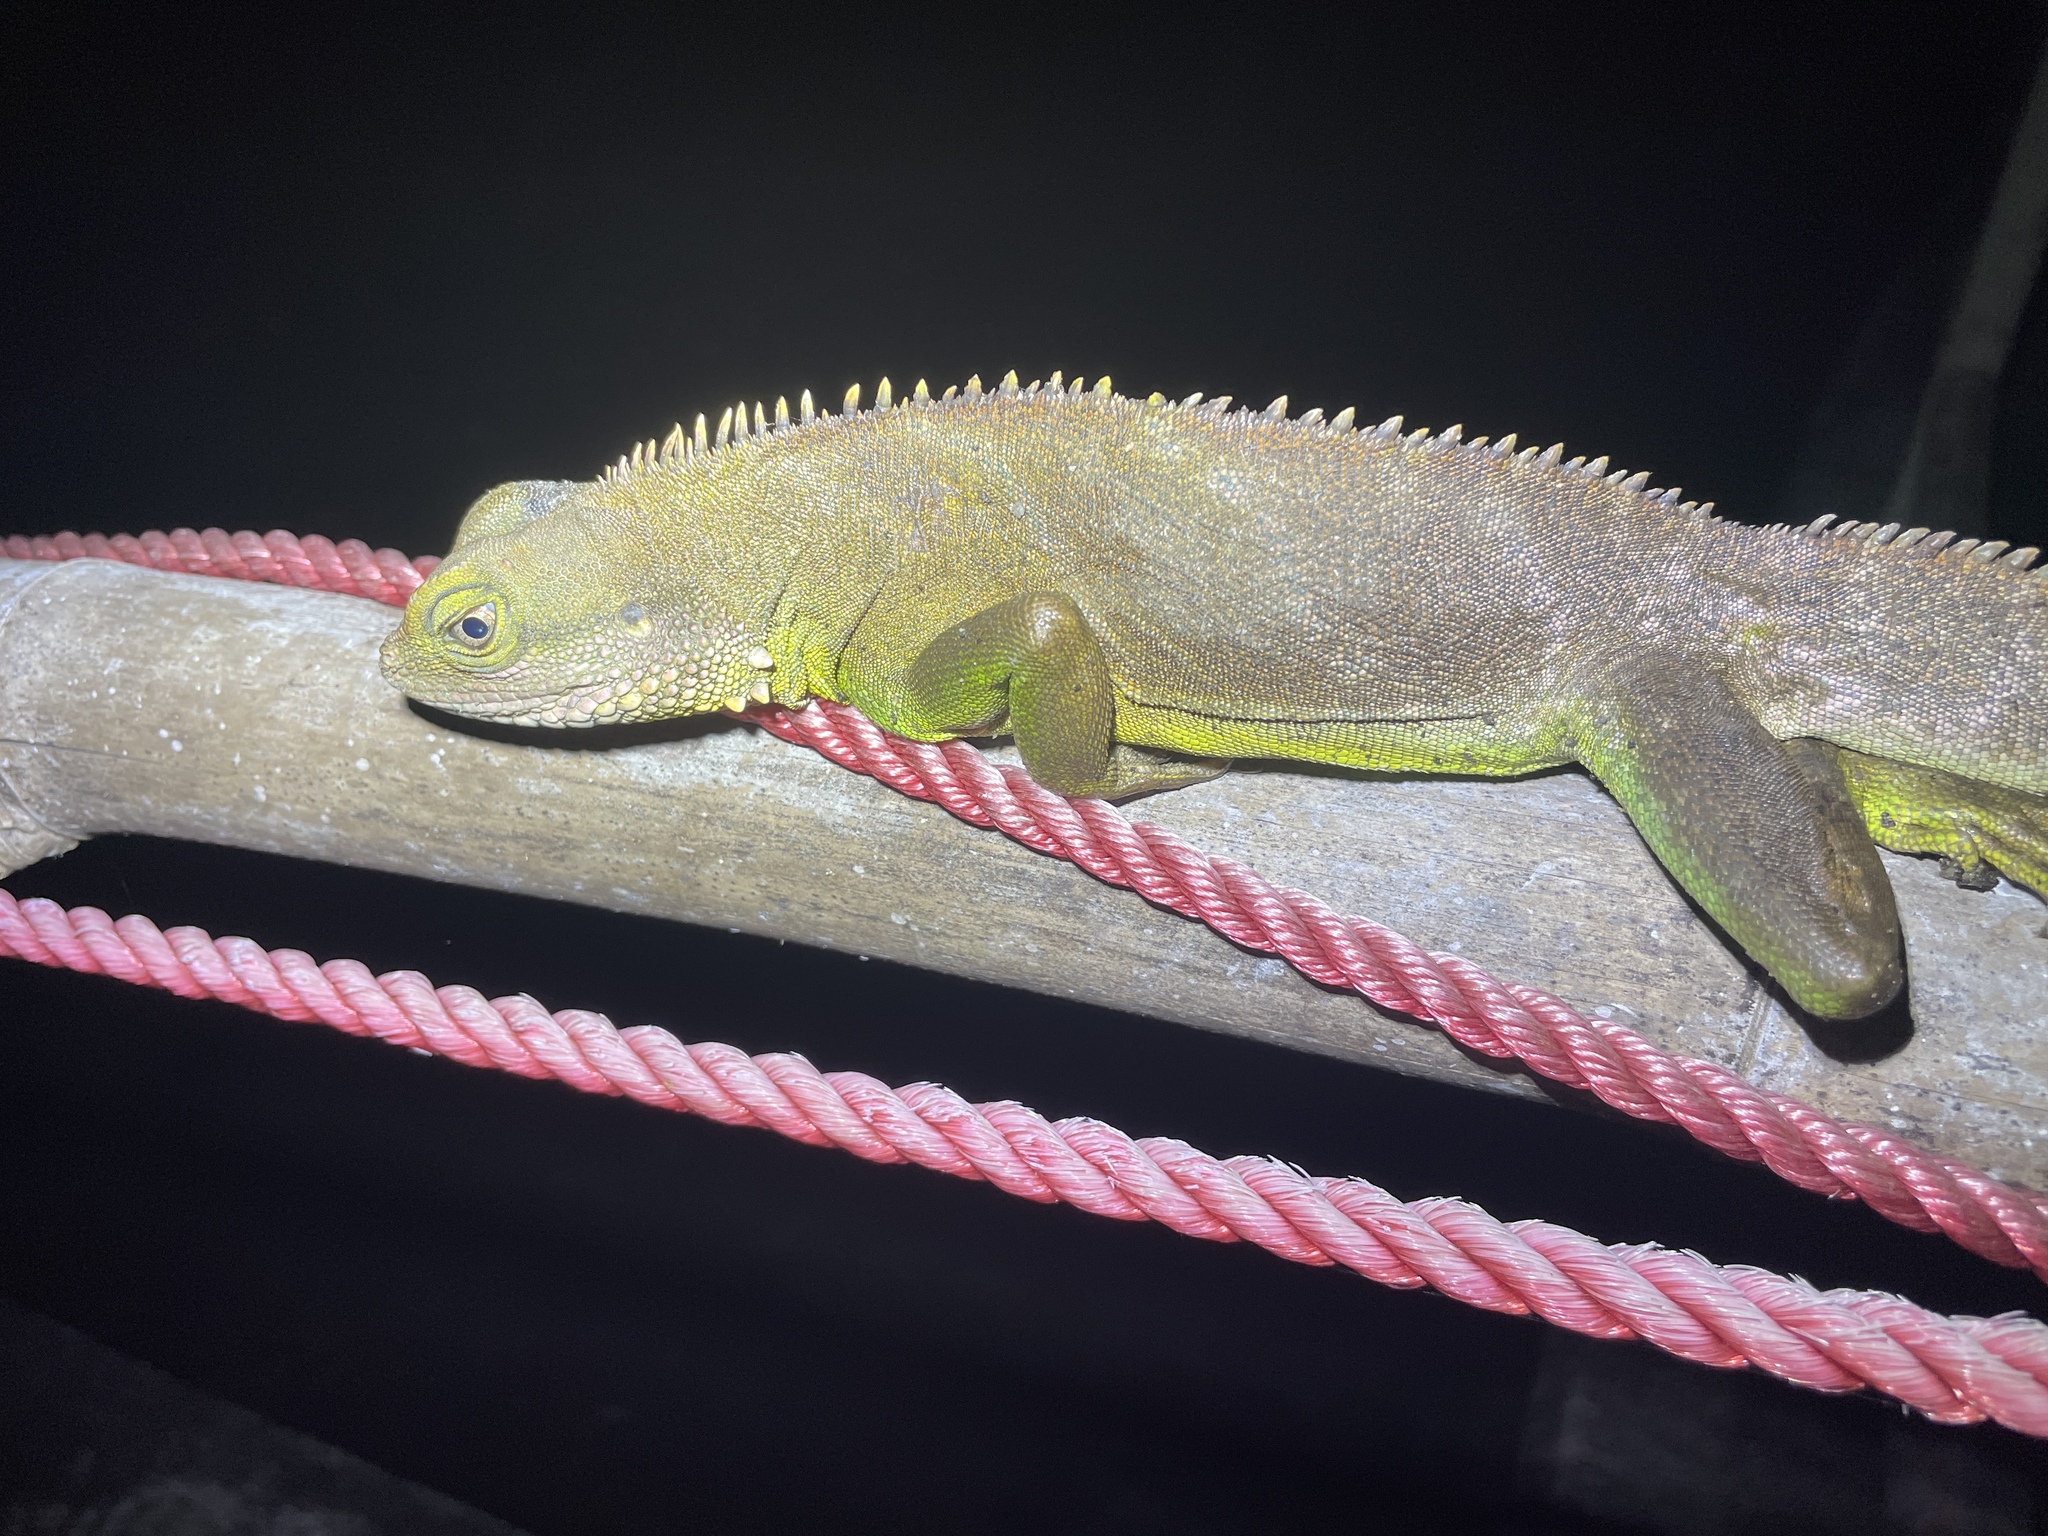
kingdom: Animalia
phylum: Chordata
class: Squamata
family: Agamidae
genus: Physignathus
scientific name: Physignathus cocincinus
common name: Asian water dragon
